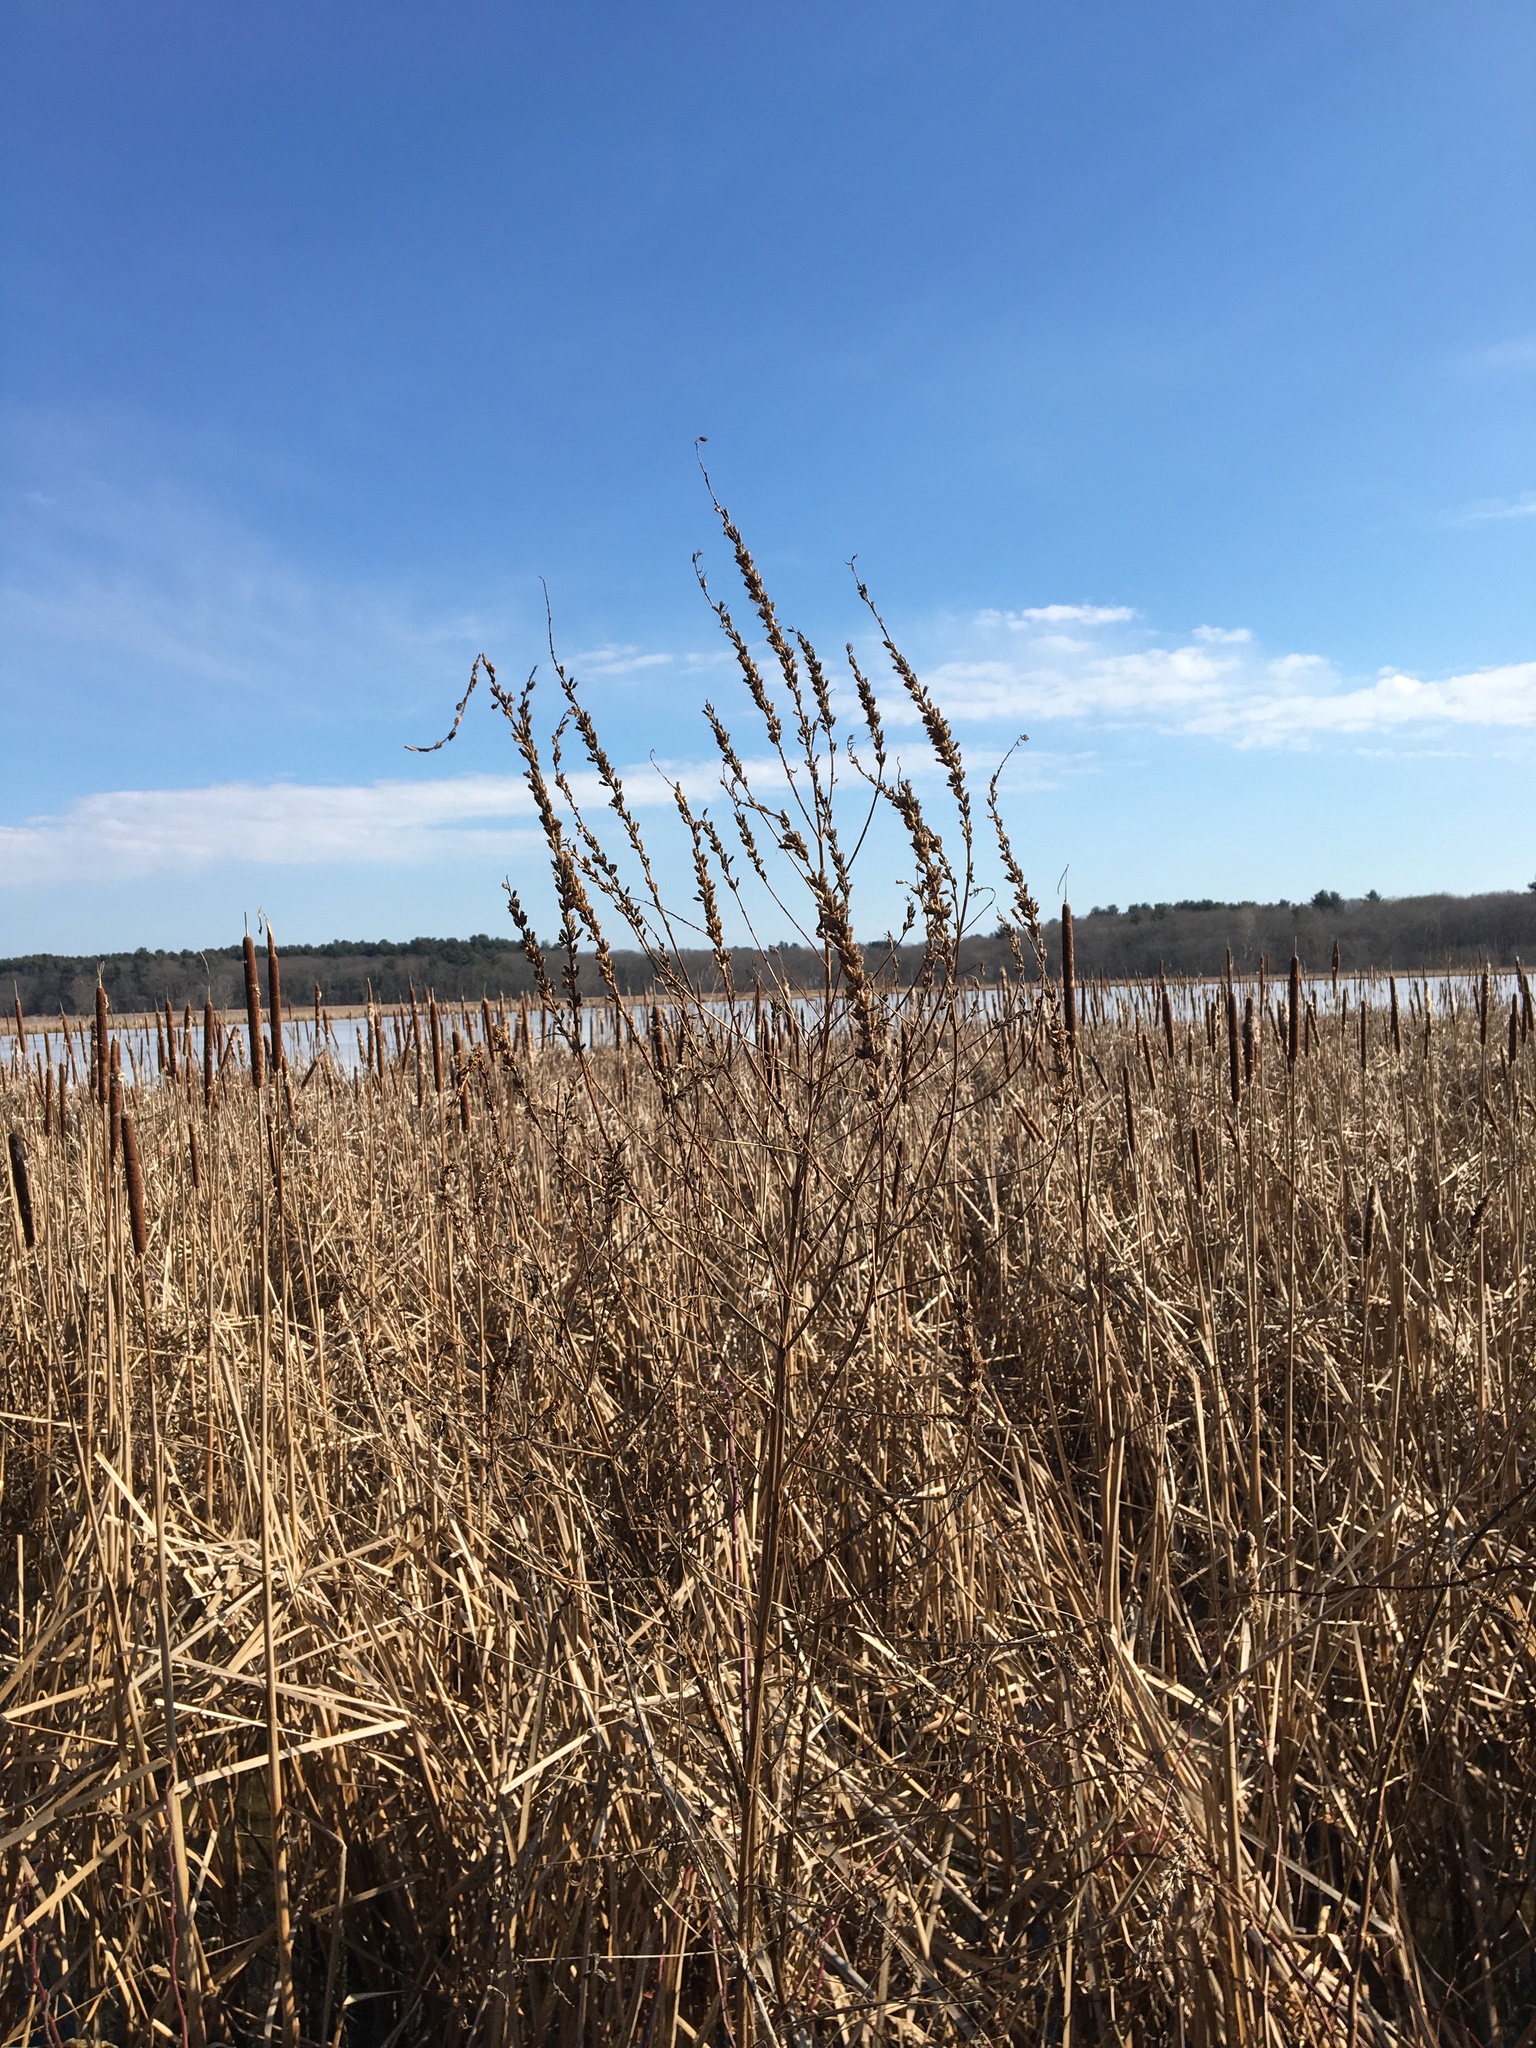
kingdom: Plantae
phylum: Tracheophyta
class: Magnoliopsida
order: Myrtales
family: Lythraceae
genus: Lythrum
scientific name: Lythrum salicaria
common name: Purple loosestrife
